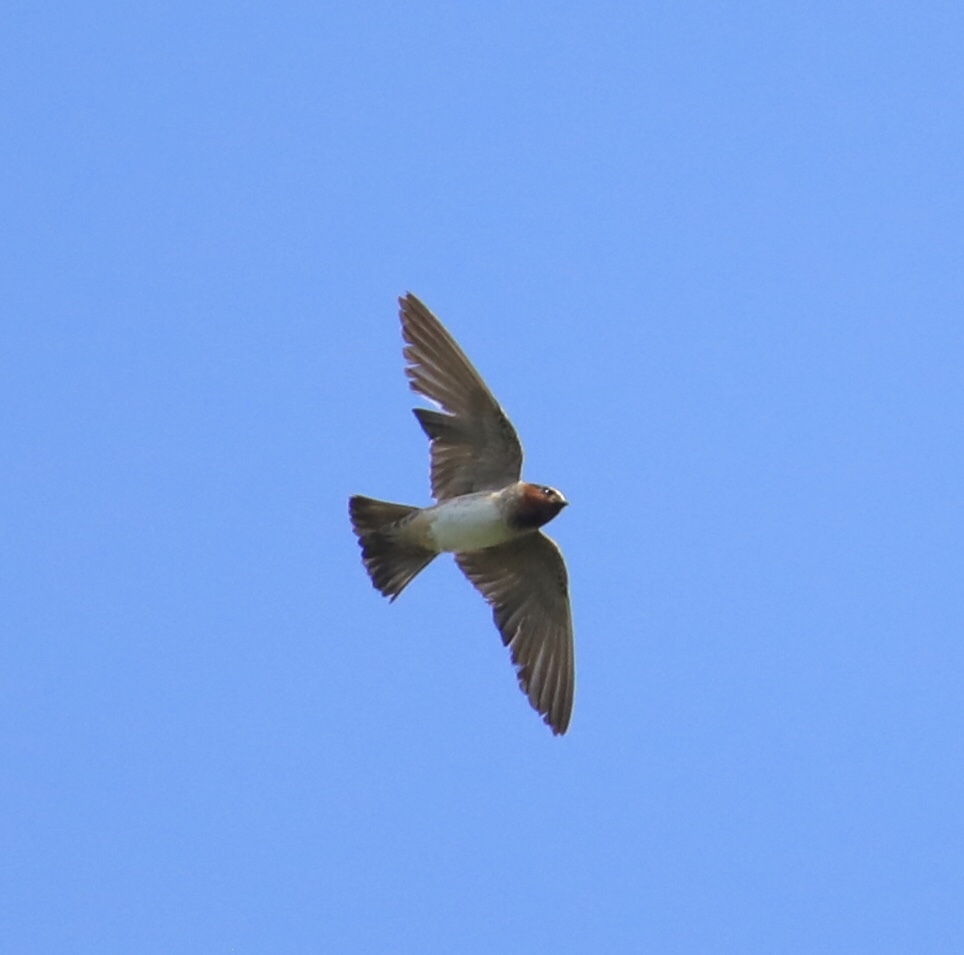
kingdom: Animalia
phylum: Chordata
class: Aves
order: Passeriformes
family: Hirundinidae
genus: Petrochelidon
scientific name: Petrochelidon pyrrhonota
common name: American cliff swallow
